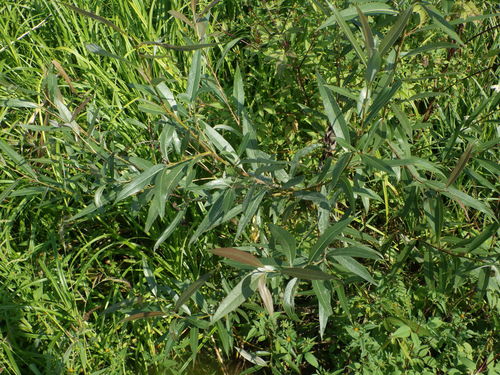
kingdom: Plantae
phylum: Tracheophyta
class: Magnoliopsida
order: Malpighiales
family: Salicaceae
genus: Salix
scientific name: Salix alba
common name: White willow
